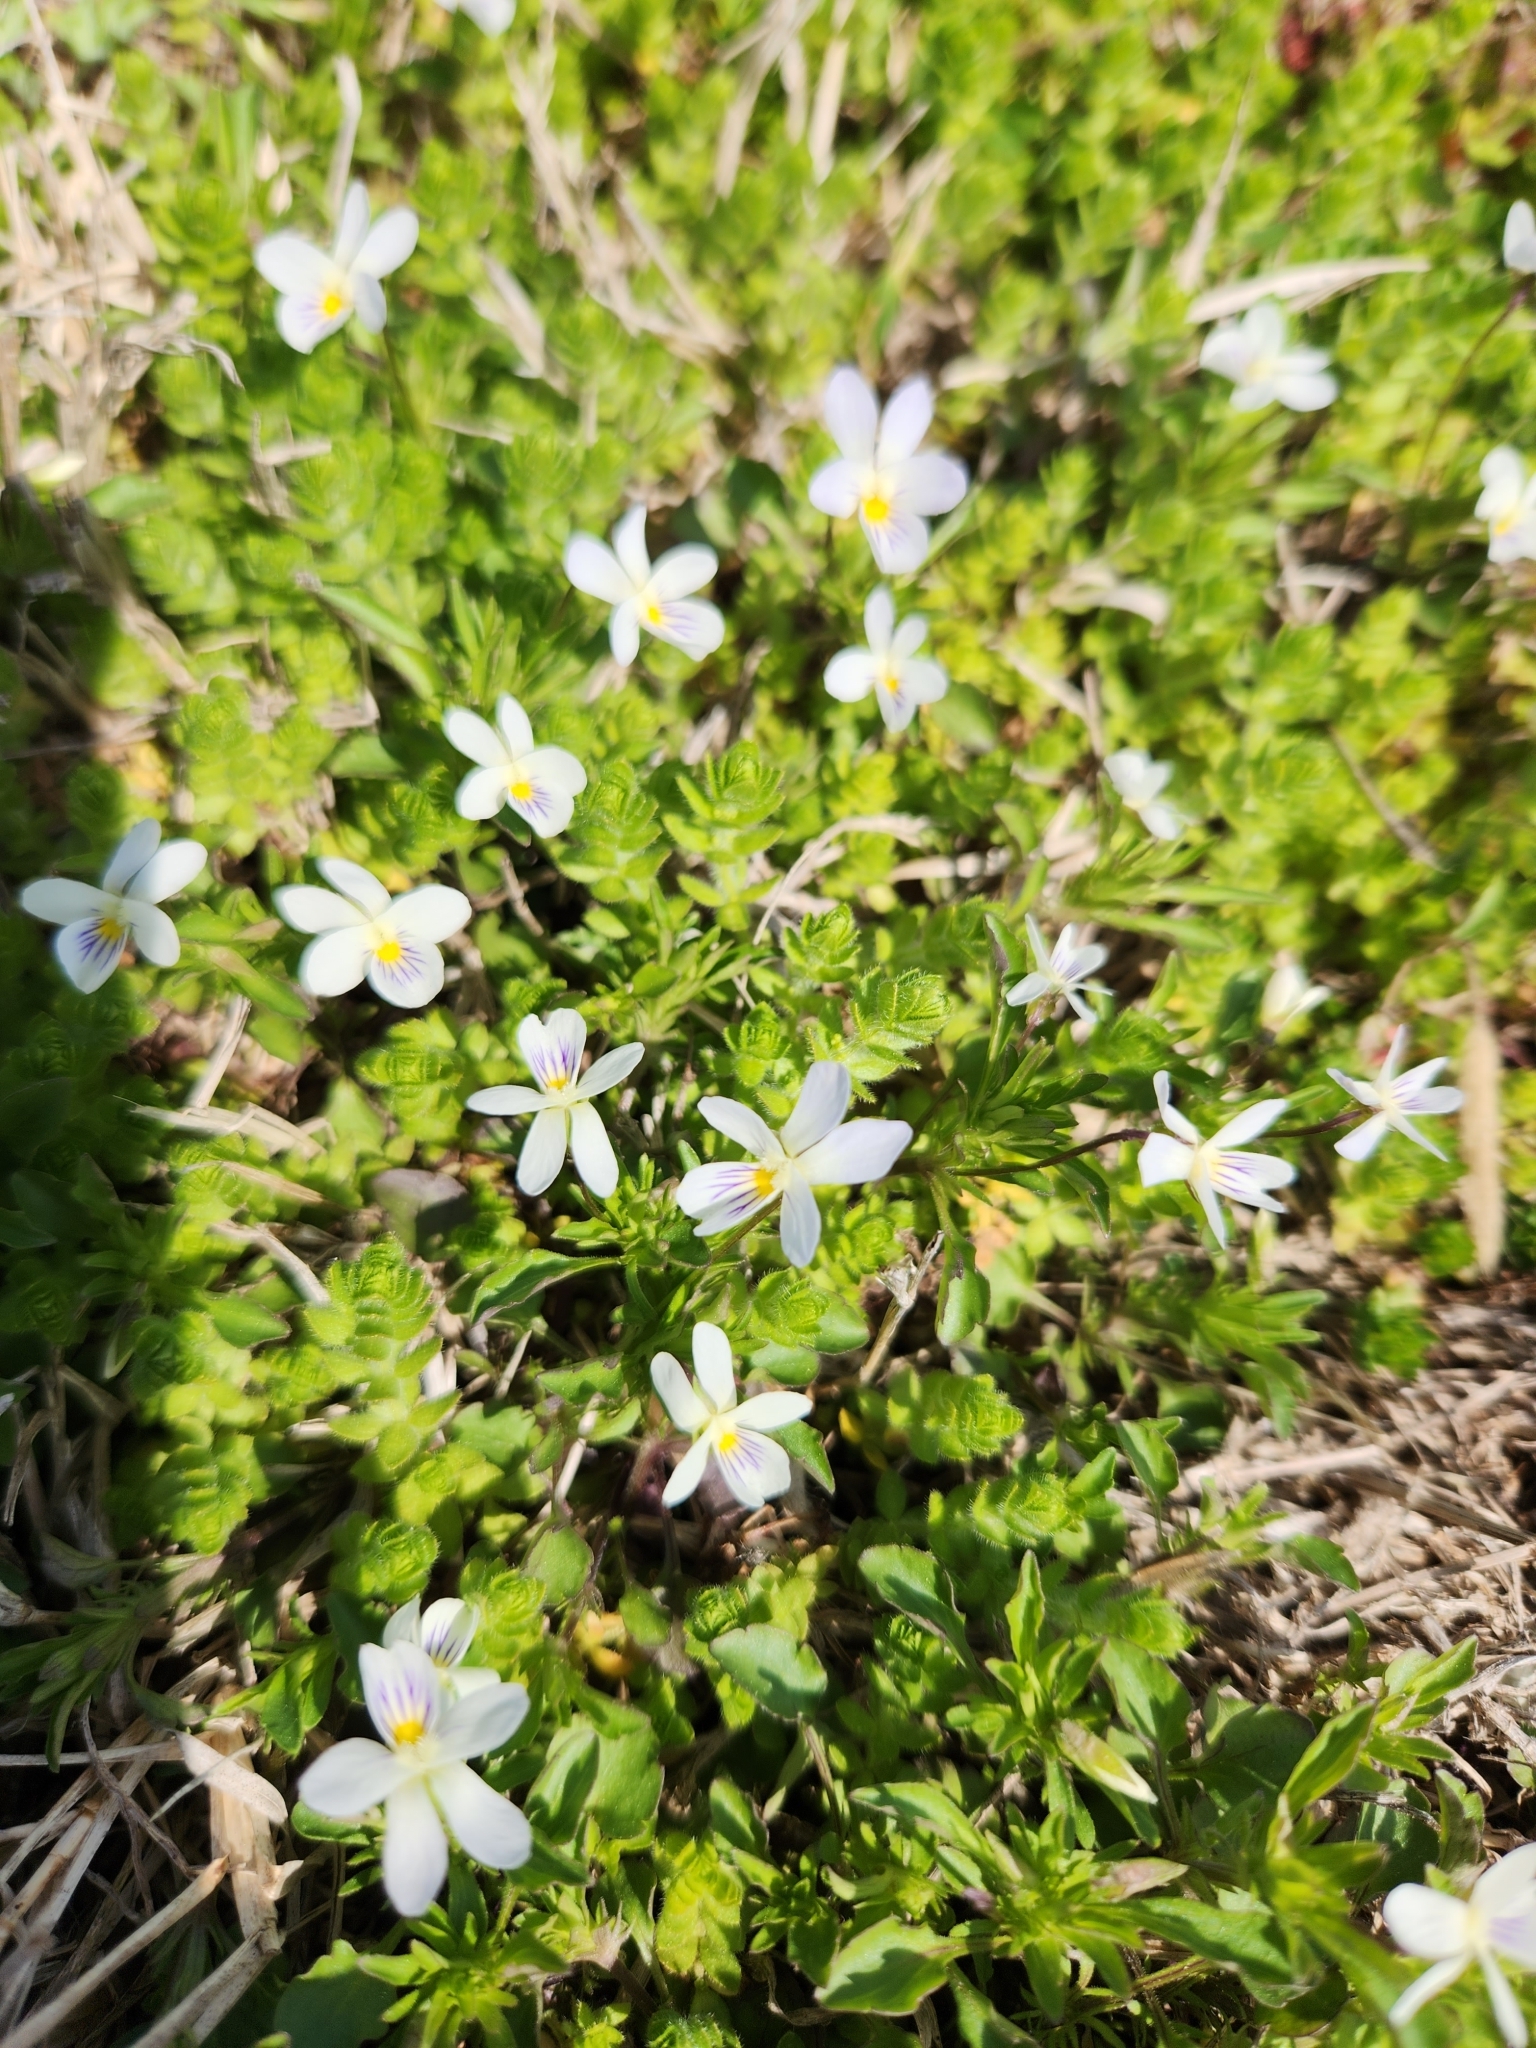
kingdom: Plantae
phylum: Tracheophyta
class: Magnoliopsida
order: Malpighiales
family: Violaceae
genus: Viola
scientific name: Viola rafinesquei
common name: American field pansy
